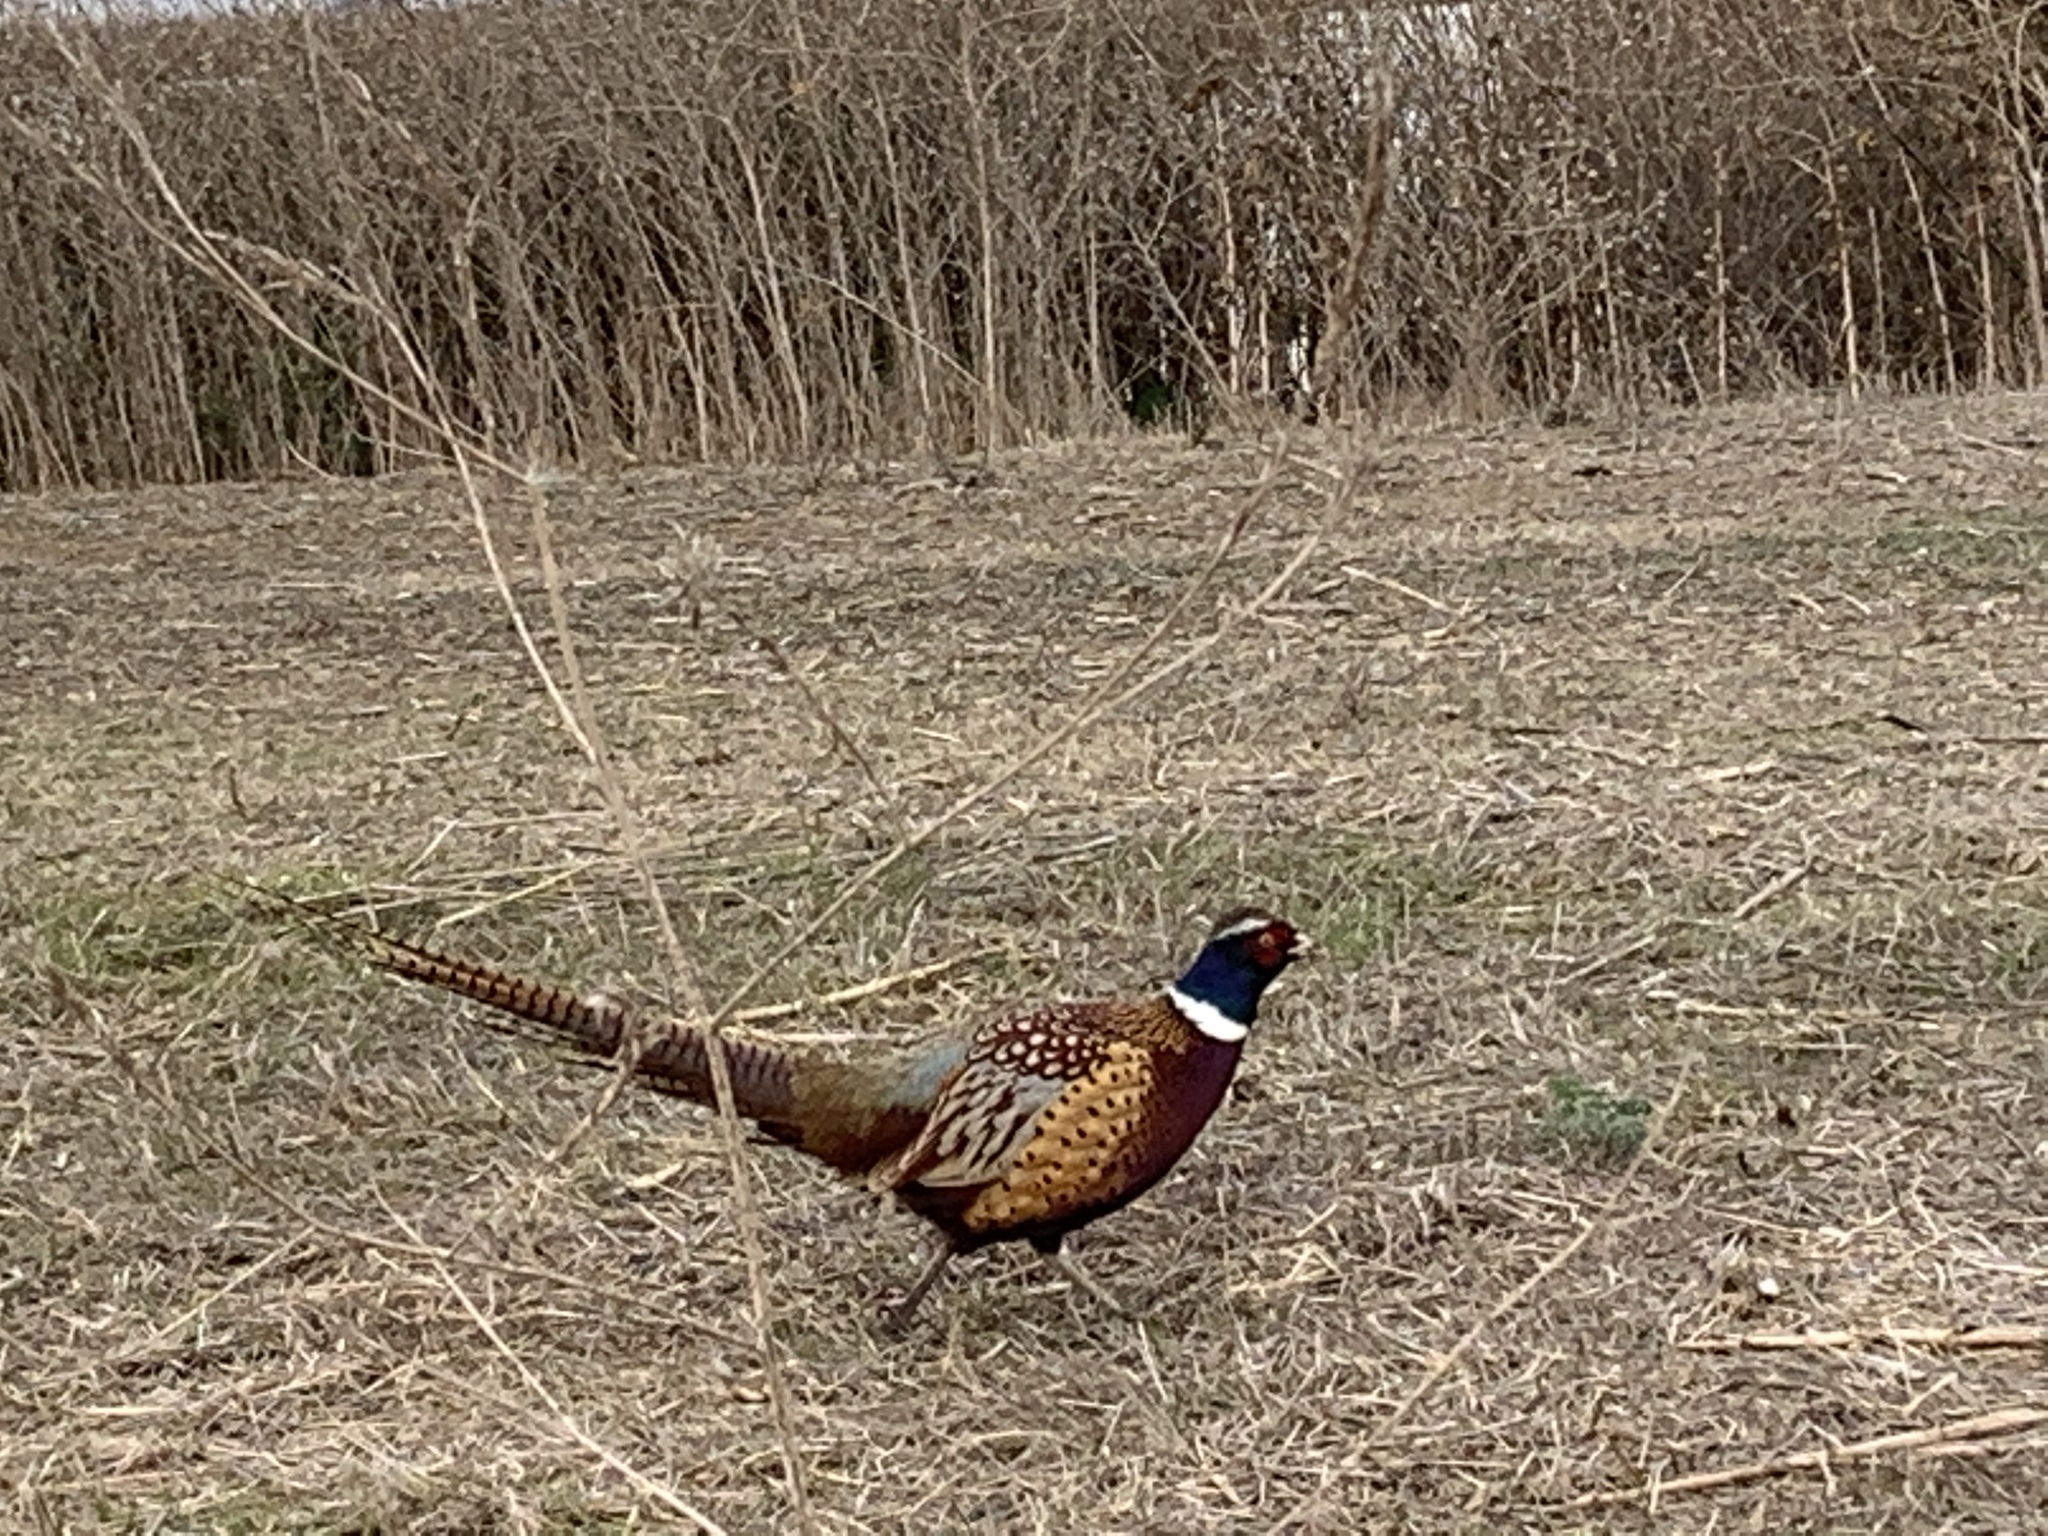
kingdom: Animalia
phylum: Chordata
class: Aves
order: Galliformes
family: Phasianidae
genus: Phasianus
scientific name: Phasianus colchicus
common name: Common pheasant
